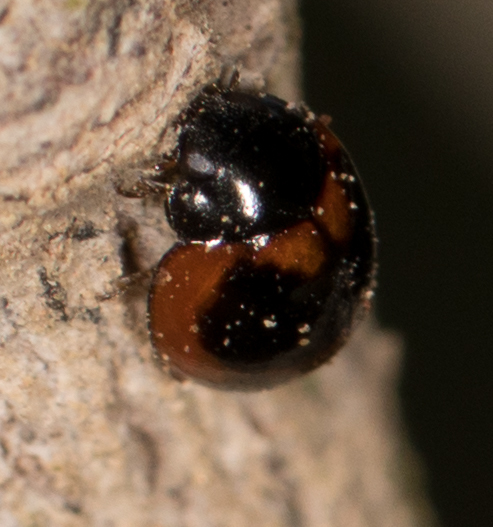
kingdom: Animalia
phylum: Arthropoda
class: Insecta
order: Coleoptera
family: Coccinellidae
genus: Exochomus
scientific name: Exochomus fasciatus
